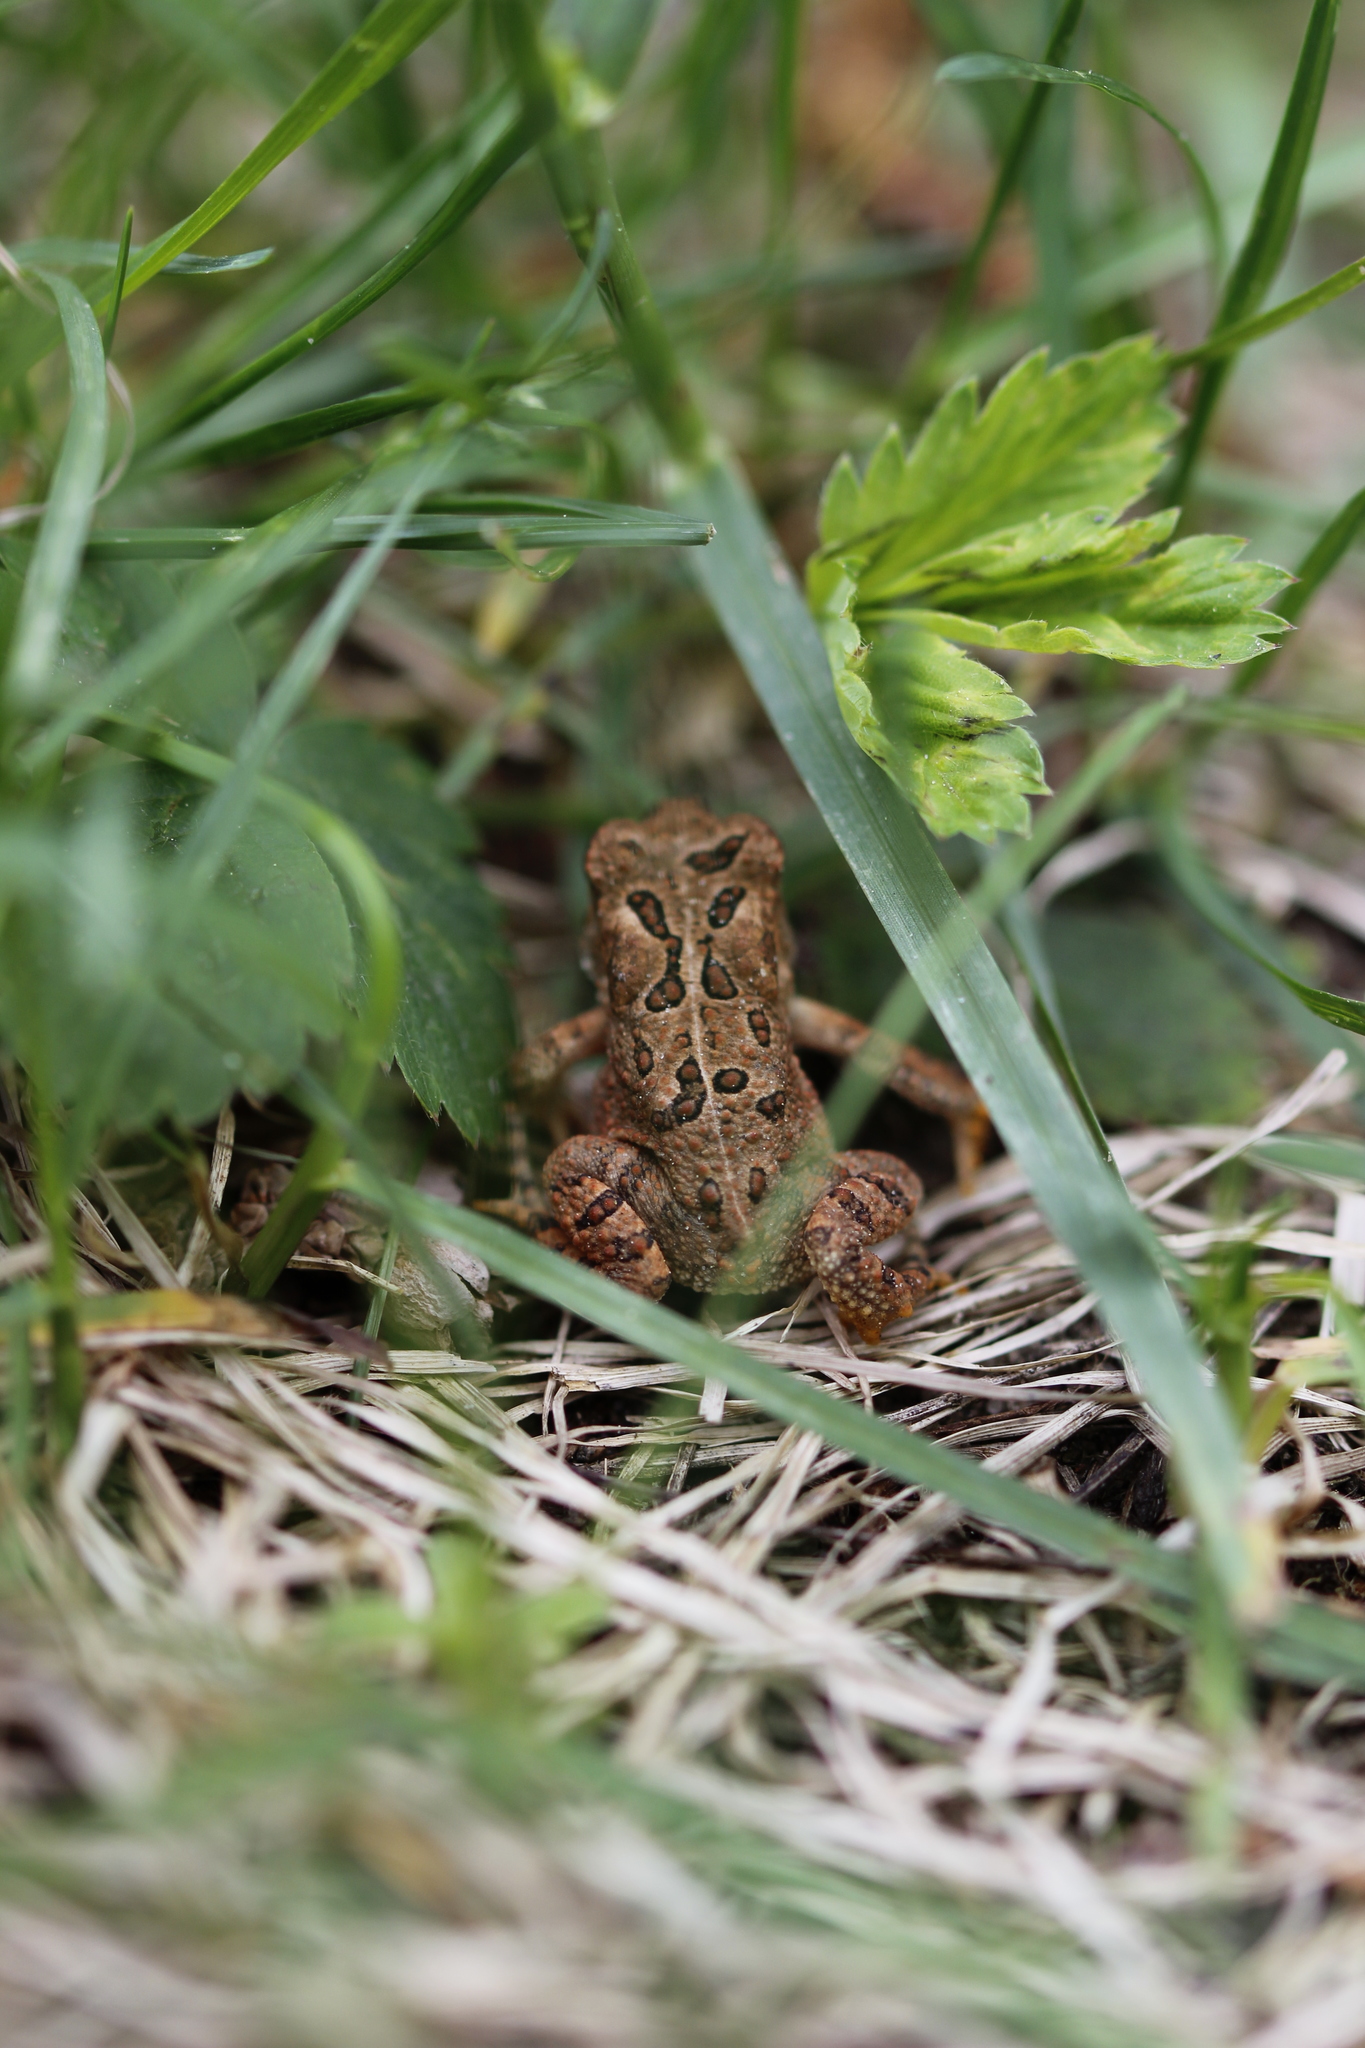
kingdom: Animalia
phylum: Chordata
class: Amphibia
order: Anura
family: Bufonidae
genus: Anaxyrus
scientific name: Anaxyrus americanus
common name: American toad
